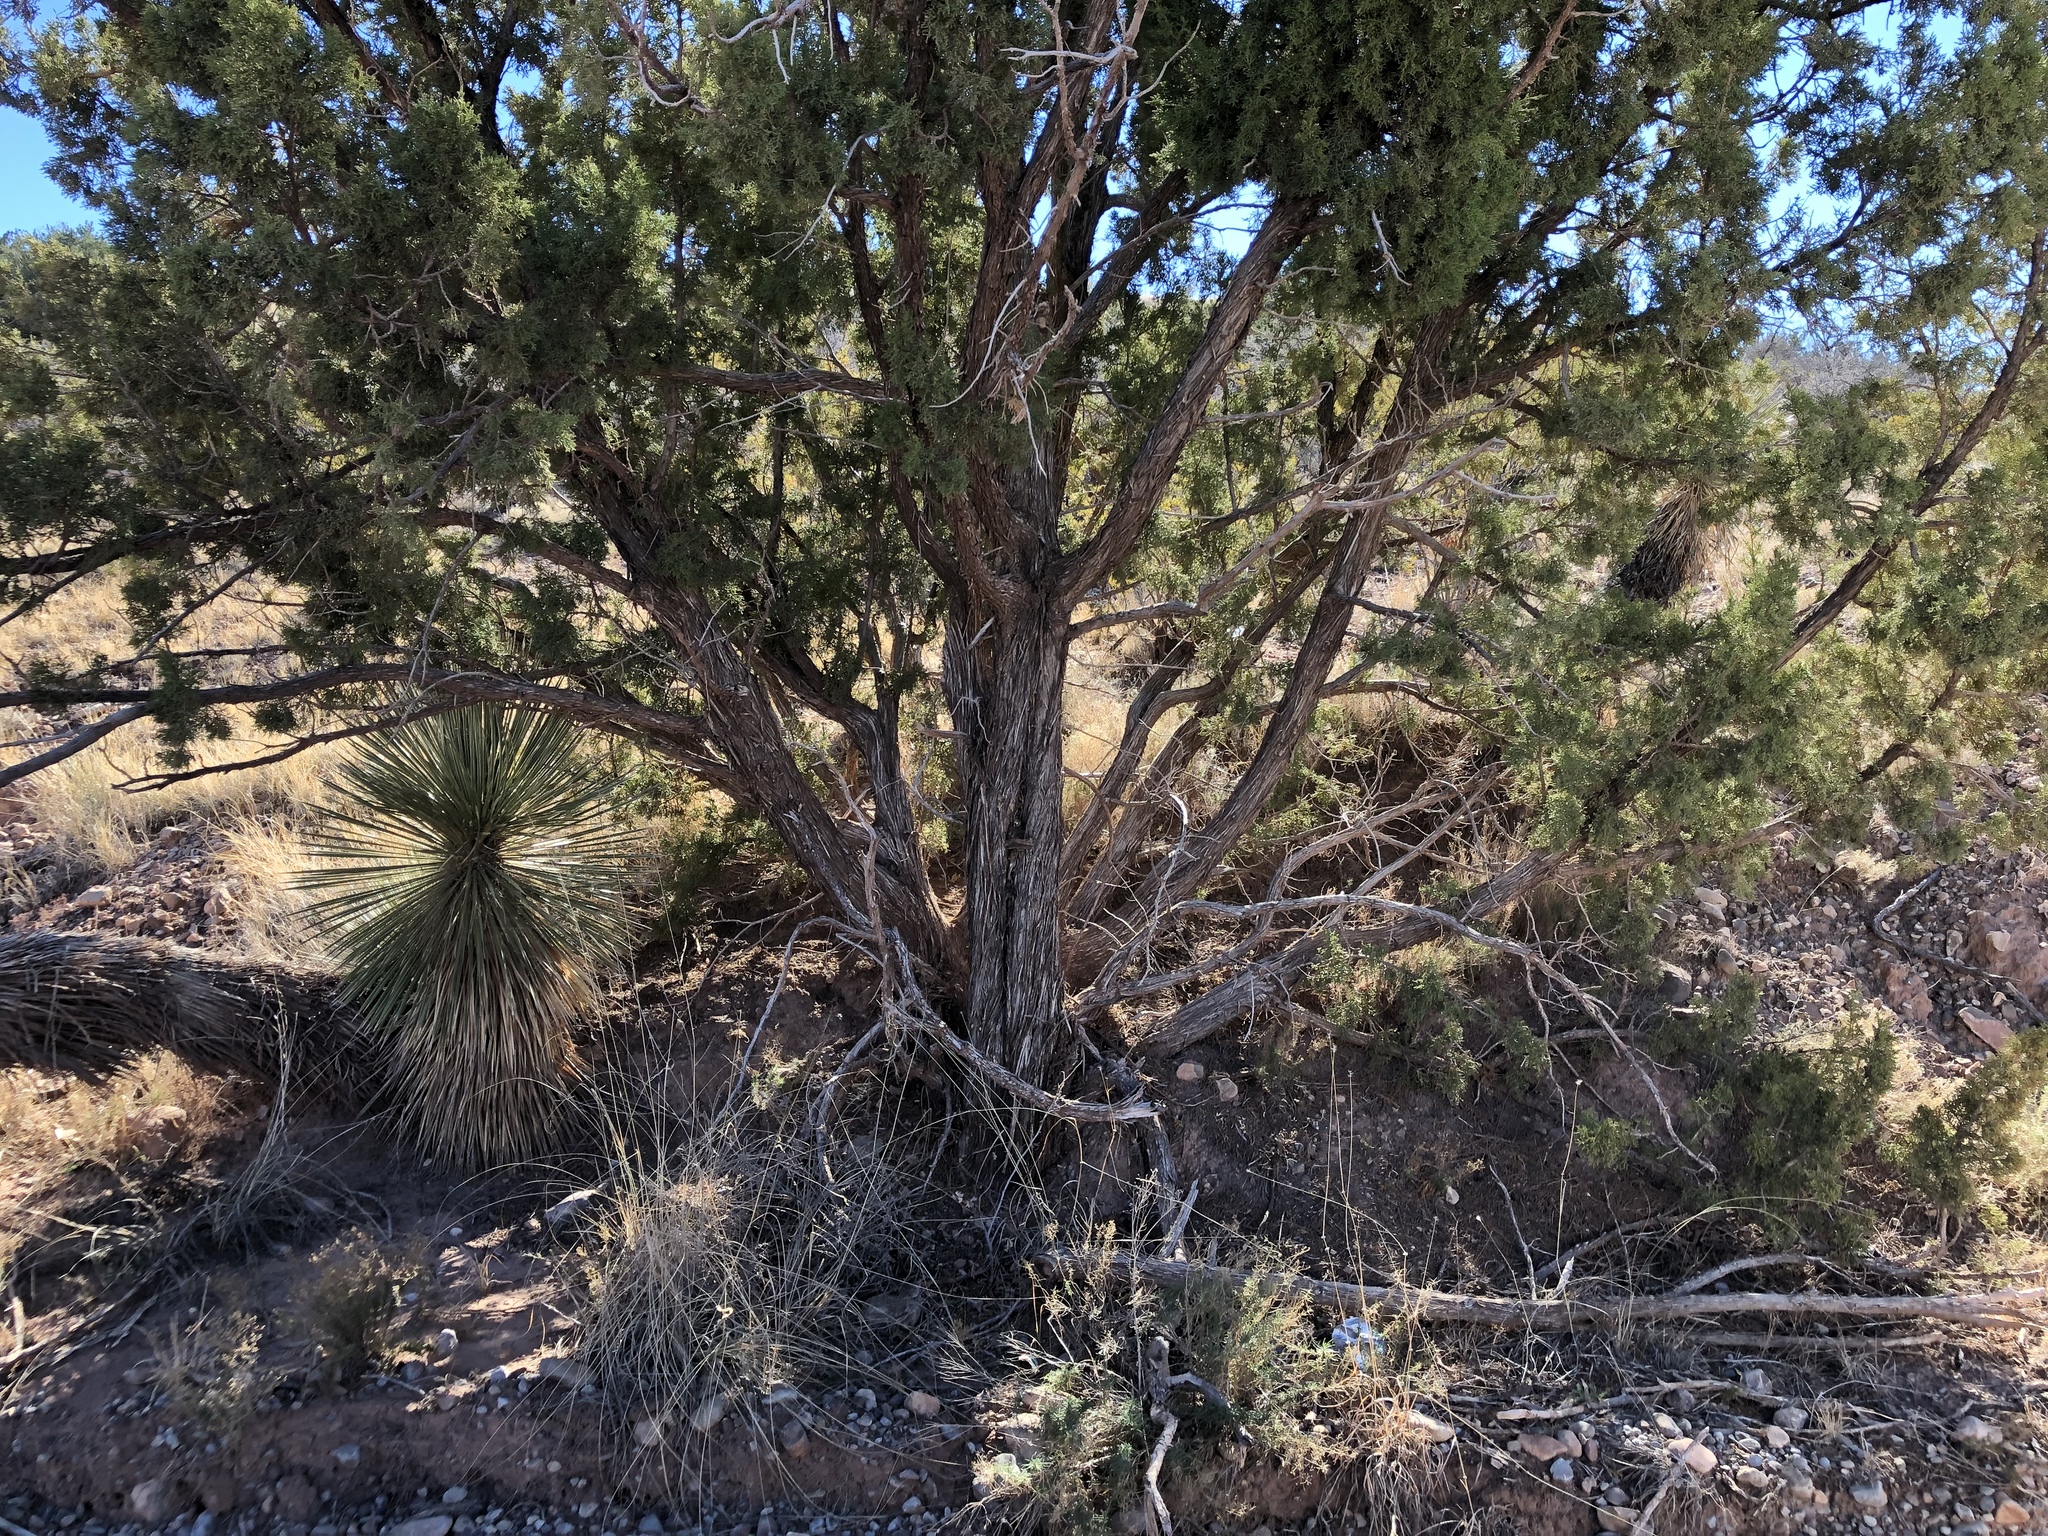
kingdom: Plantae
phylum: Tracheophyta
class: Pinopsida
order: Pinales
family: Cupressaceae
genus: Juniperus
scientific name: Juniperus monosperma
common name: One-seed juniper
